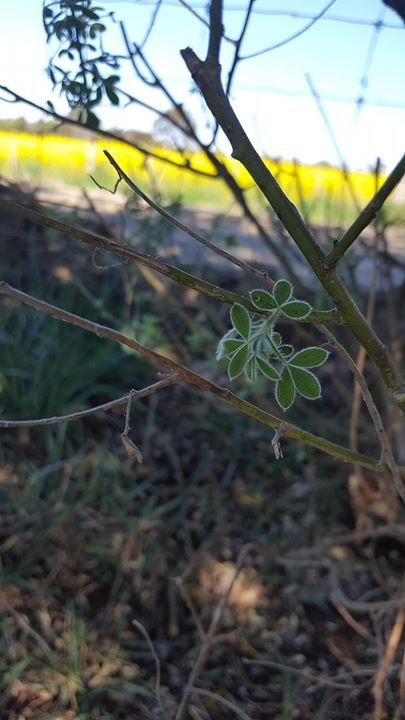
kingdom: Plantae
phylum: Tracheophyta
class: Magnoliopsida
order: Fabales
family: Fabaceae
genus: Chamaecytisus
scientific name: Chamaecytisus prolifer
